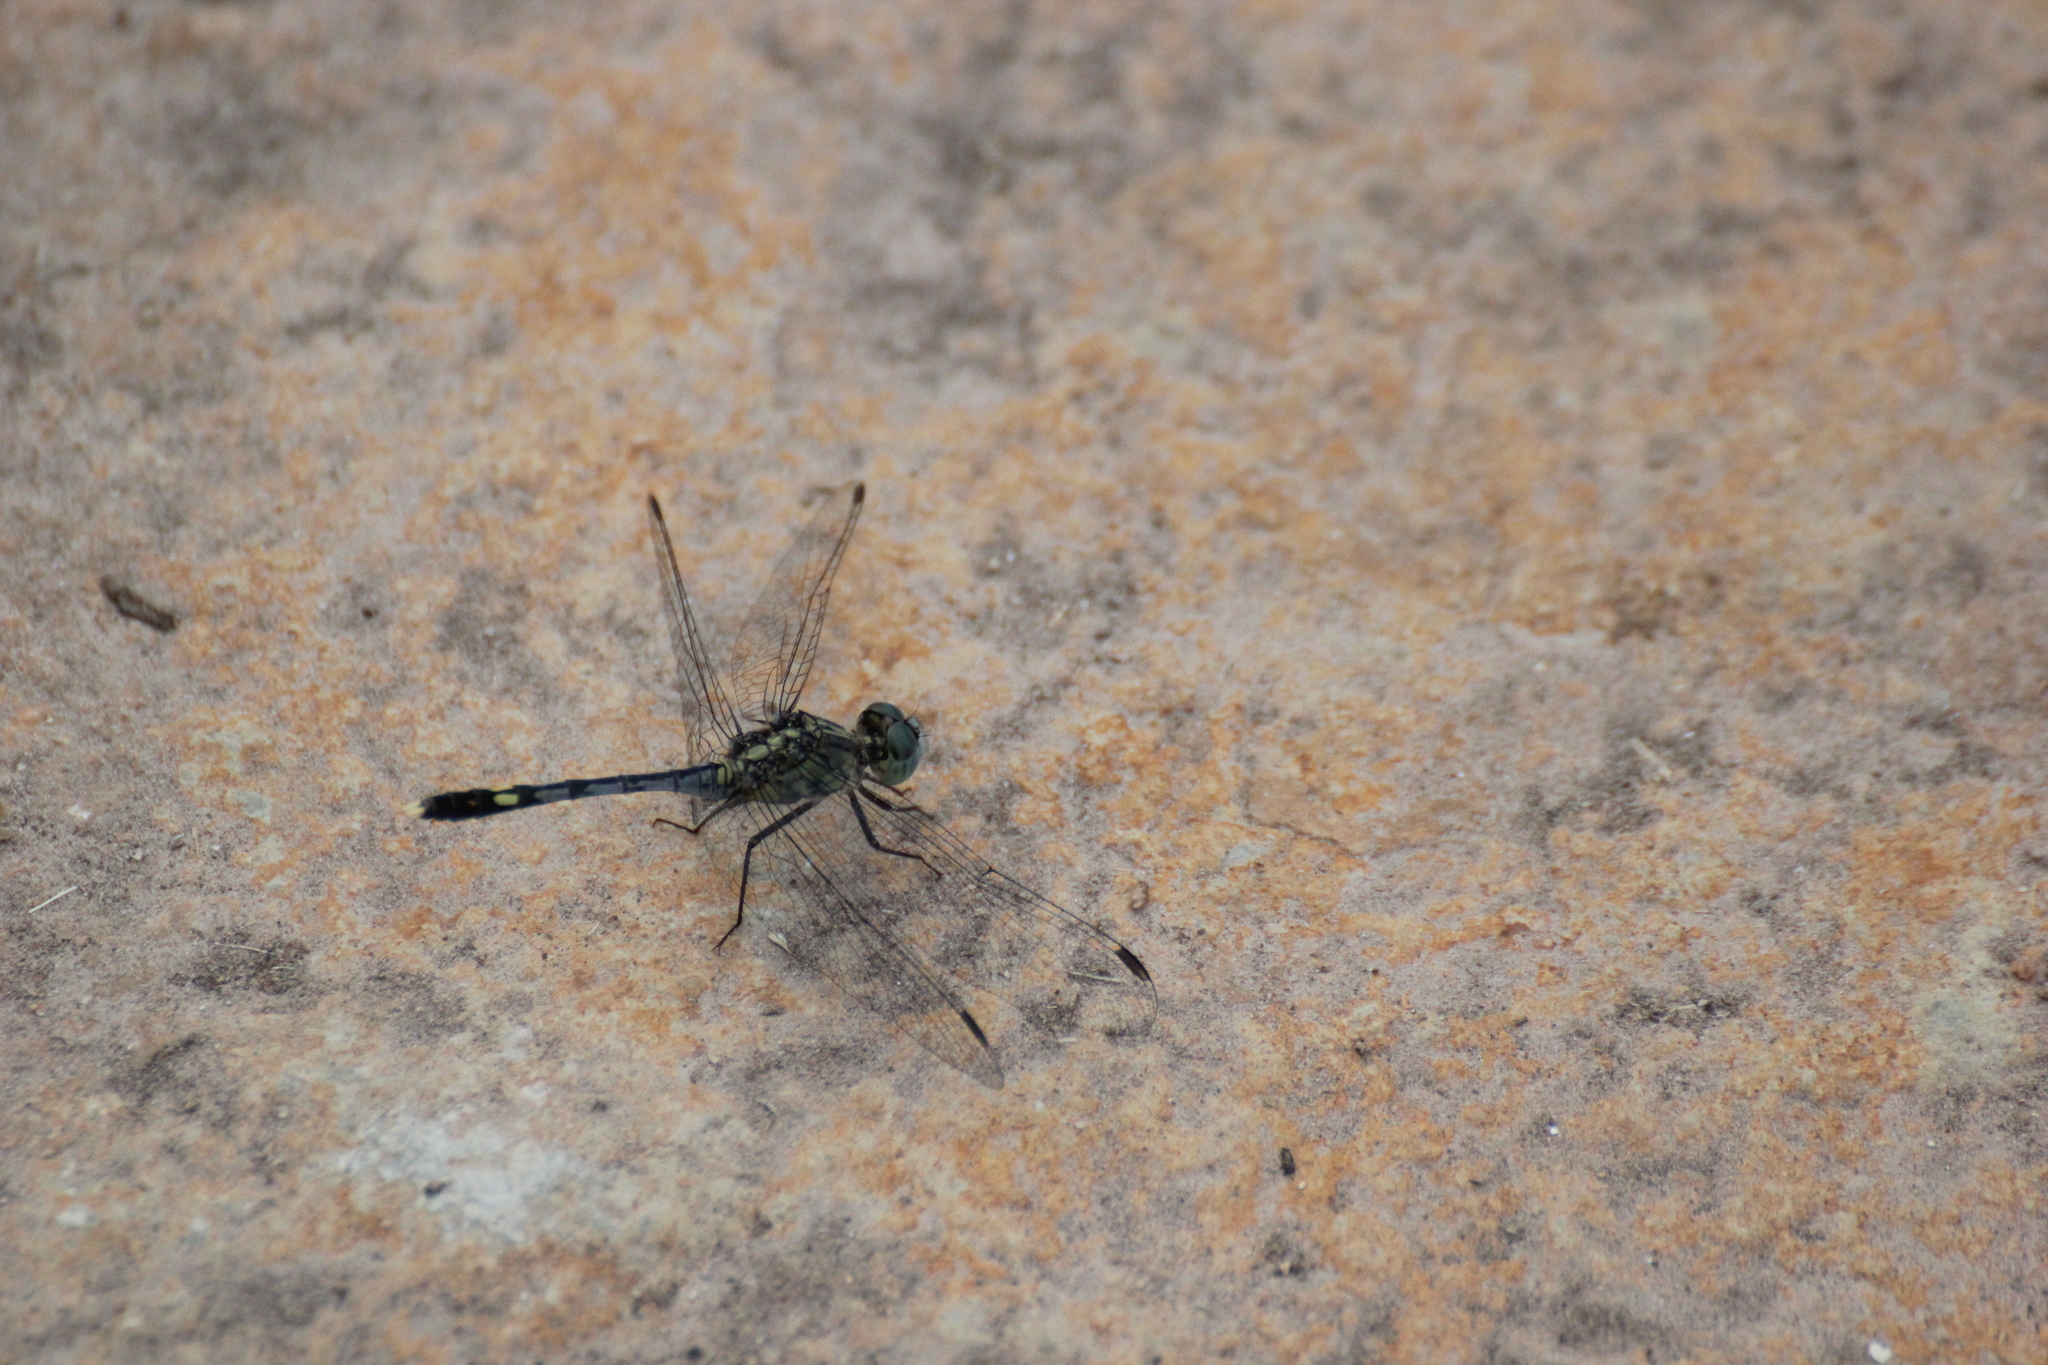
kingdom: Animalia
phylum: Arthropoda
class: Insecta
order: Odonata
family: Libellulidae
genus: Diplacodes
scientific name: Diplacodes trivialis
